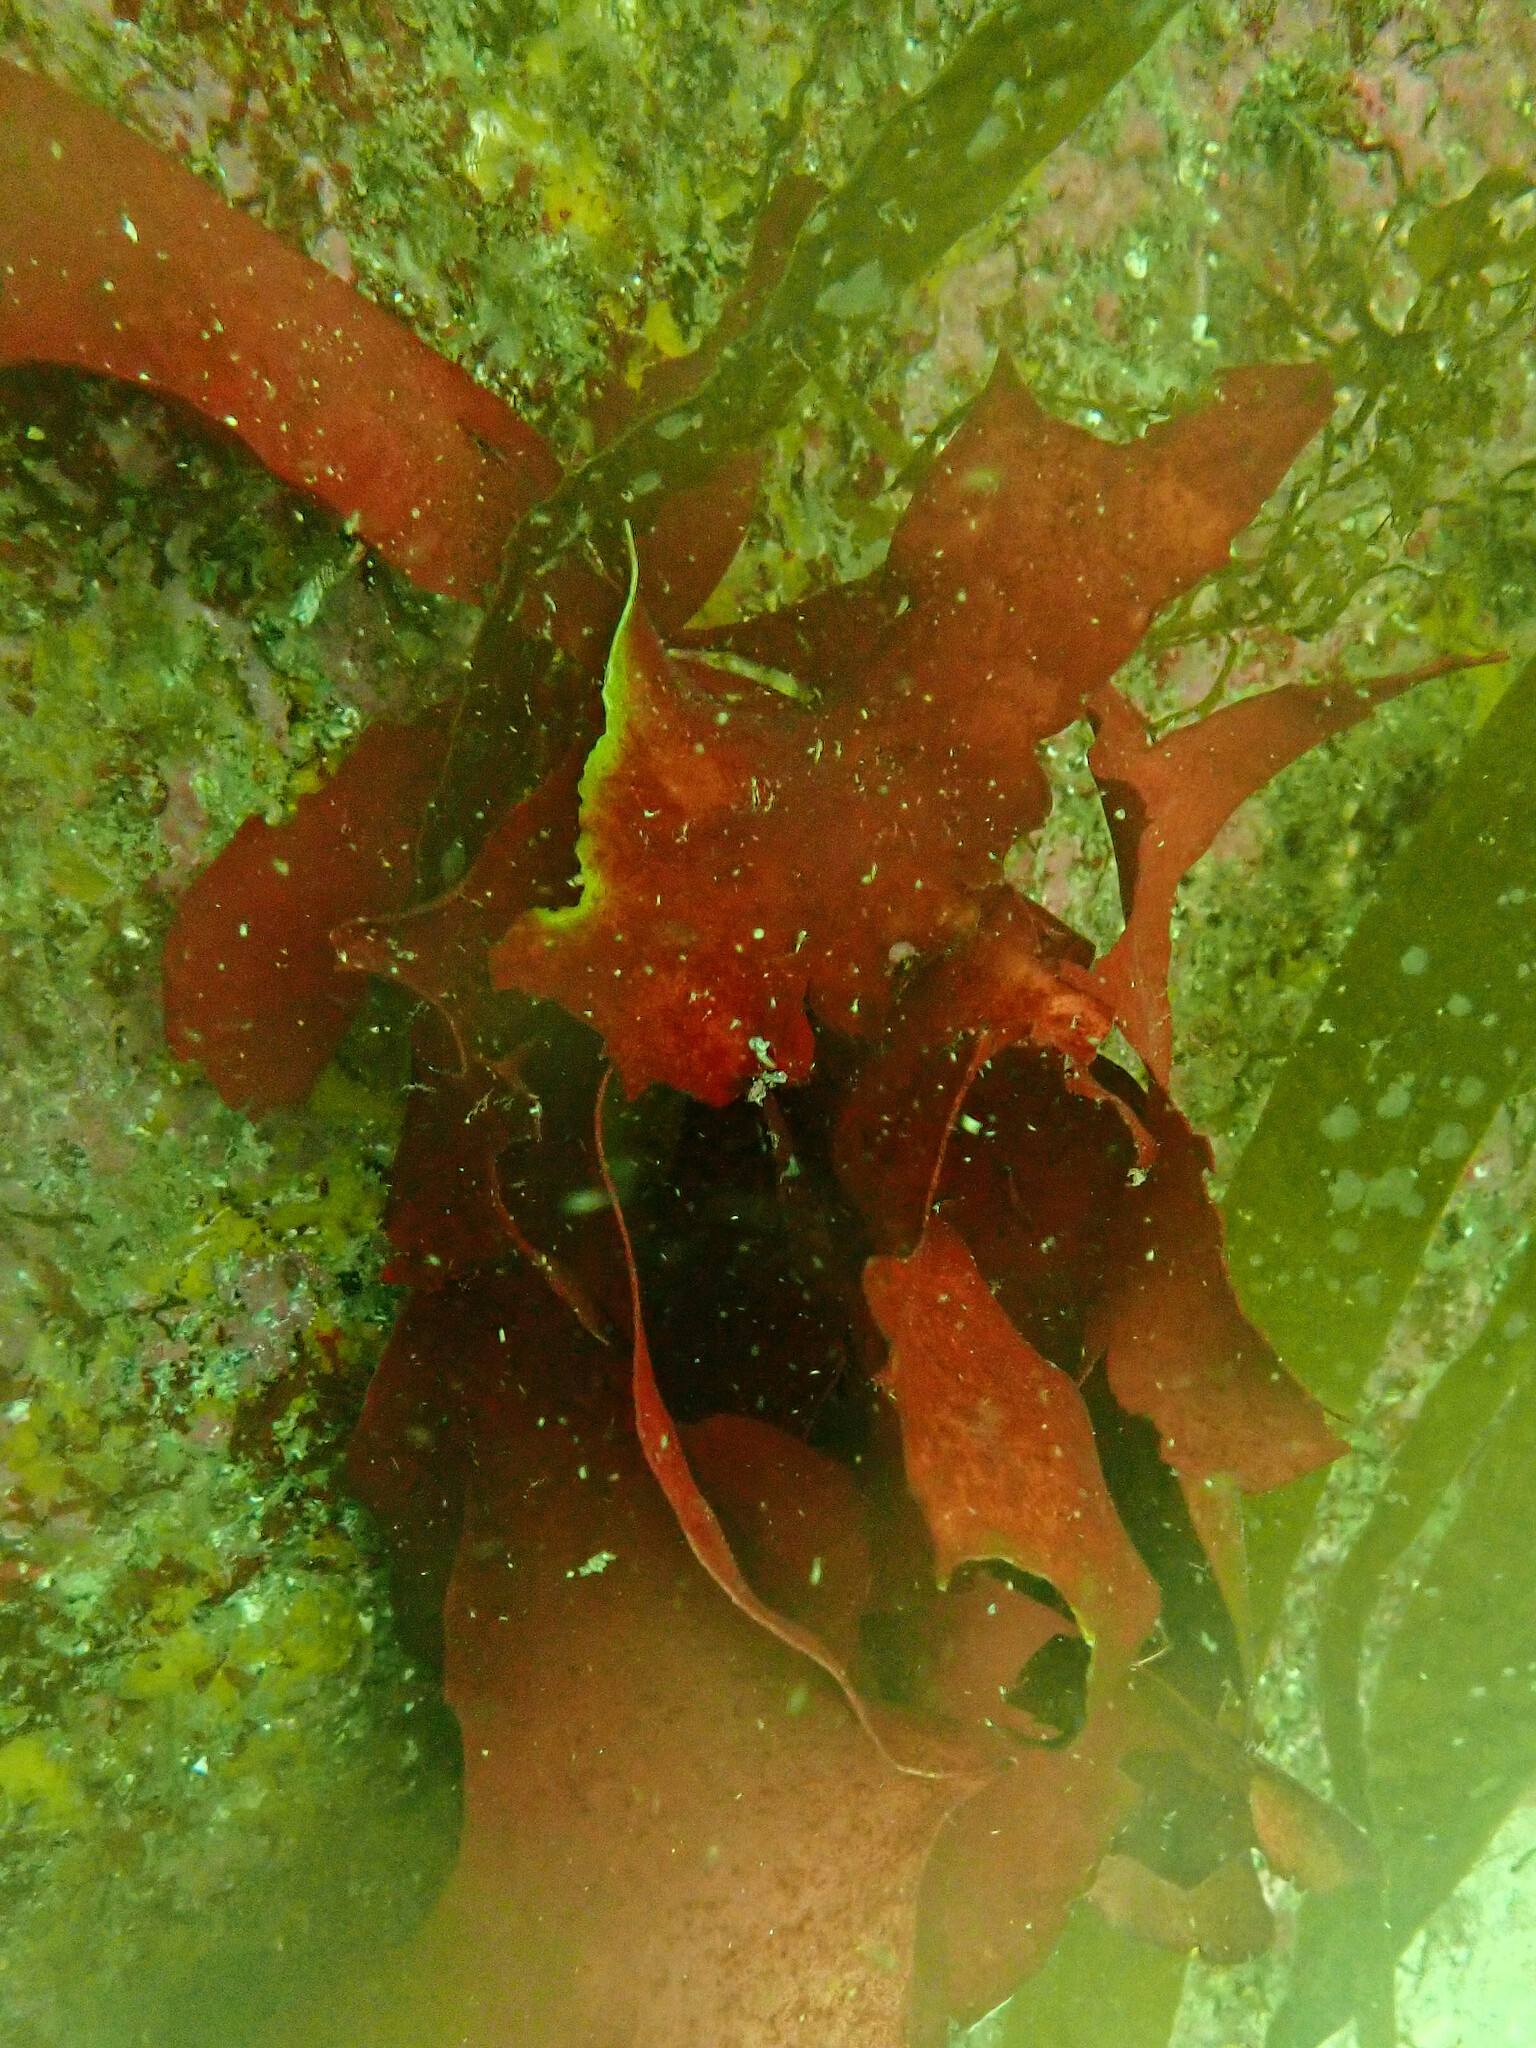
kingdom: Plantae
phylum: Rhodophyta
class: Florideophyceae
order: Gigartinales
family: Dumontiaceae
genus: Dilsea
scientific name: Dilsea carnosa
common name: Red rags
